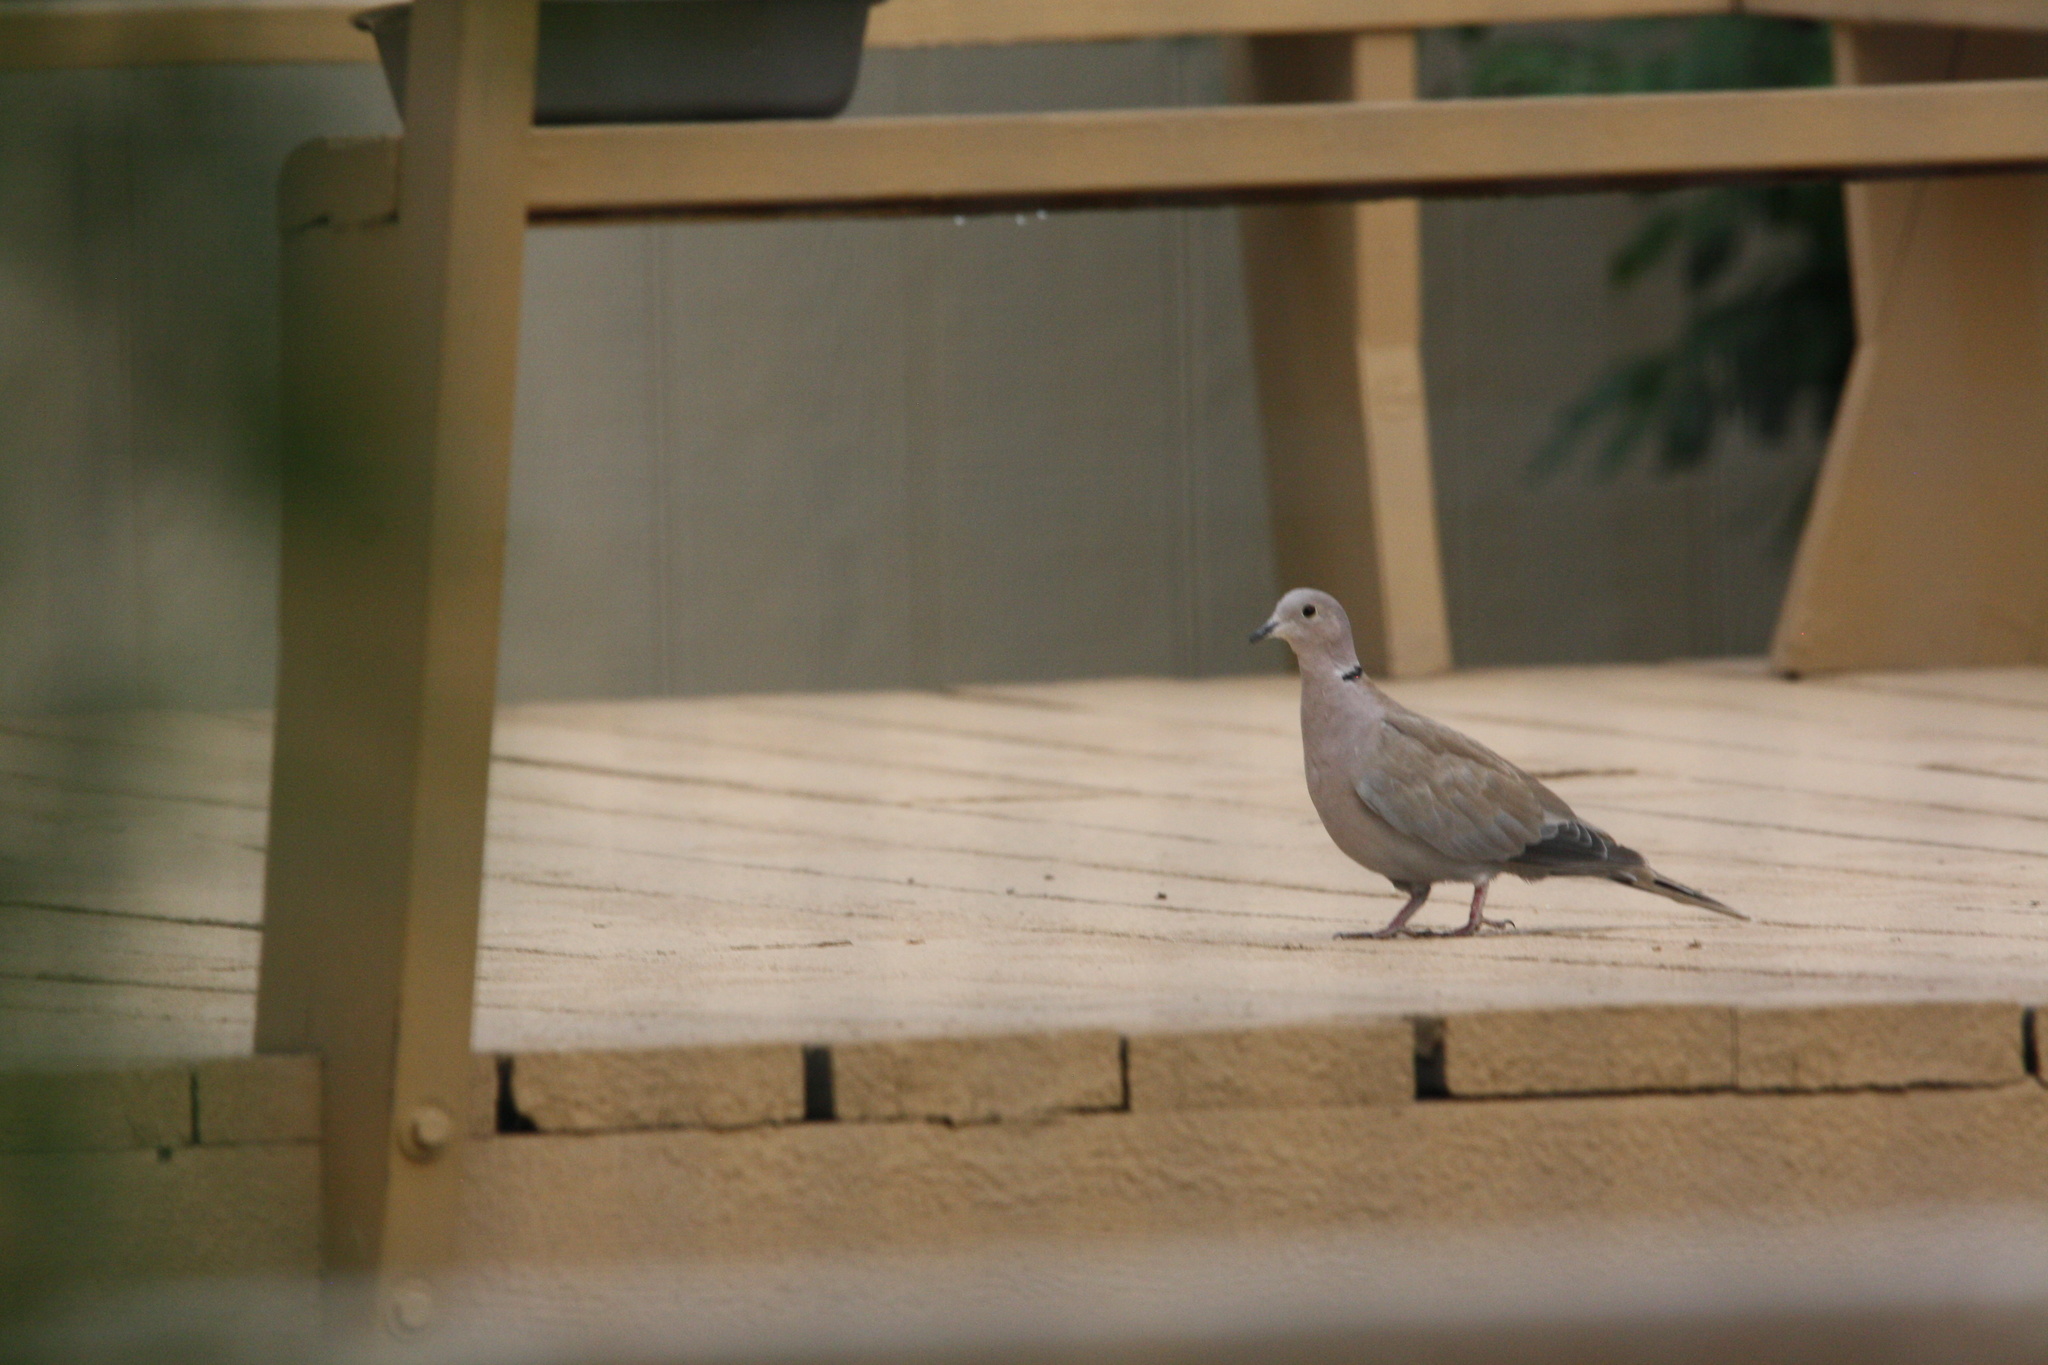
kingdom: Animalia
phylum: Chordata
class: Aves
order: Columbiformes
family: Columbidae
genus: Streptopelia
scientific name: Streptopelia decaocto
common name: Eurasian collared dove
